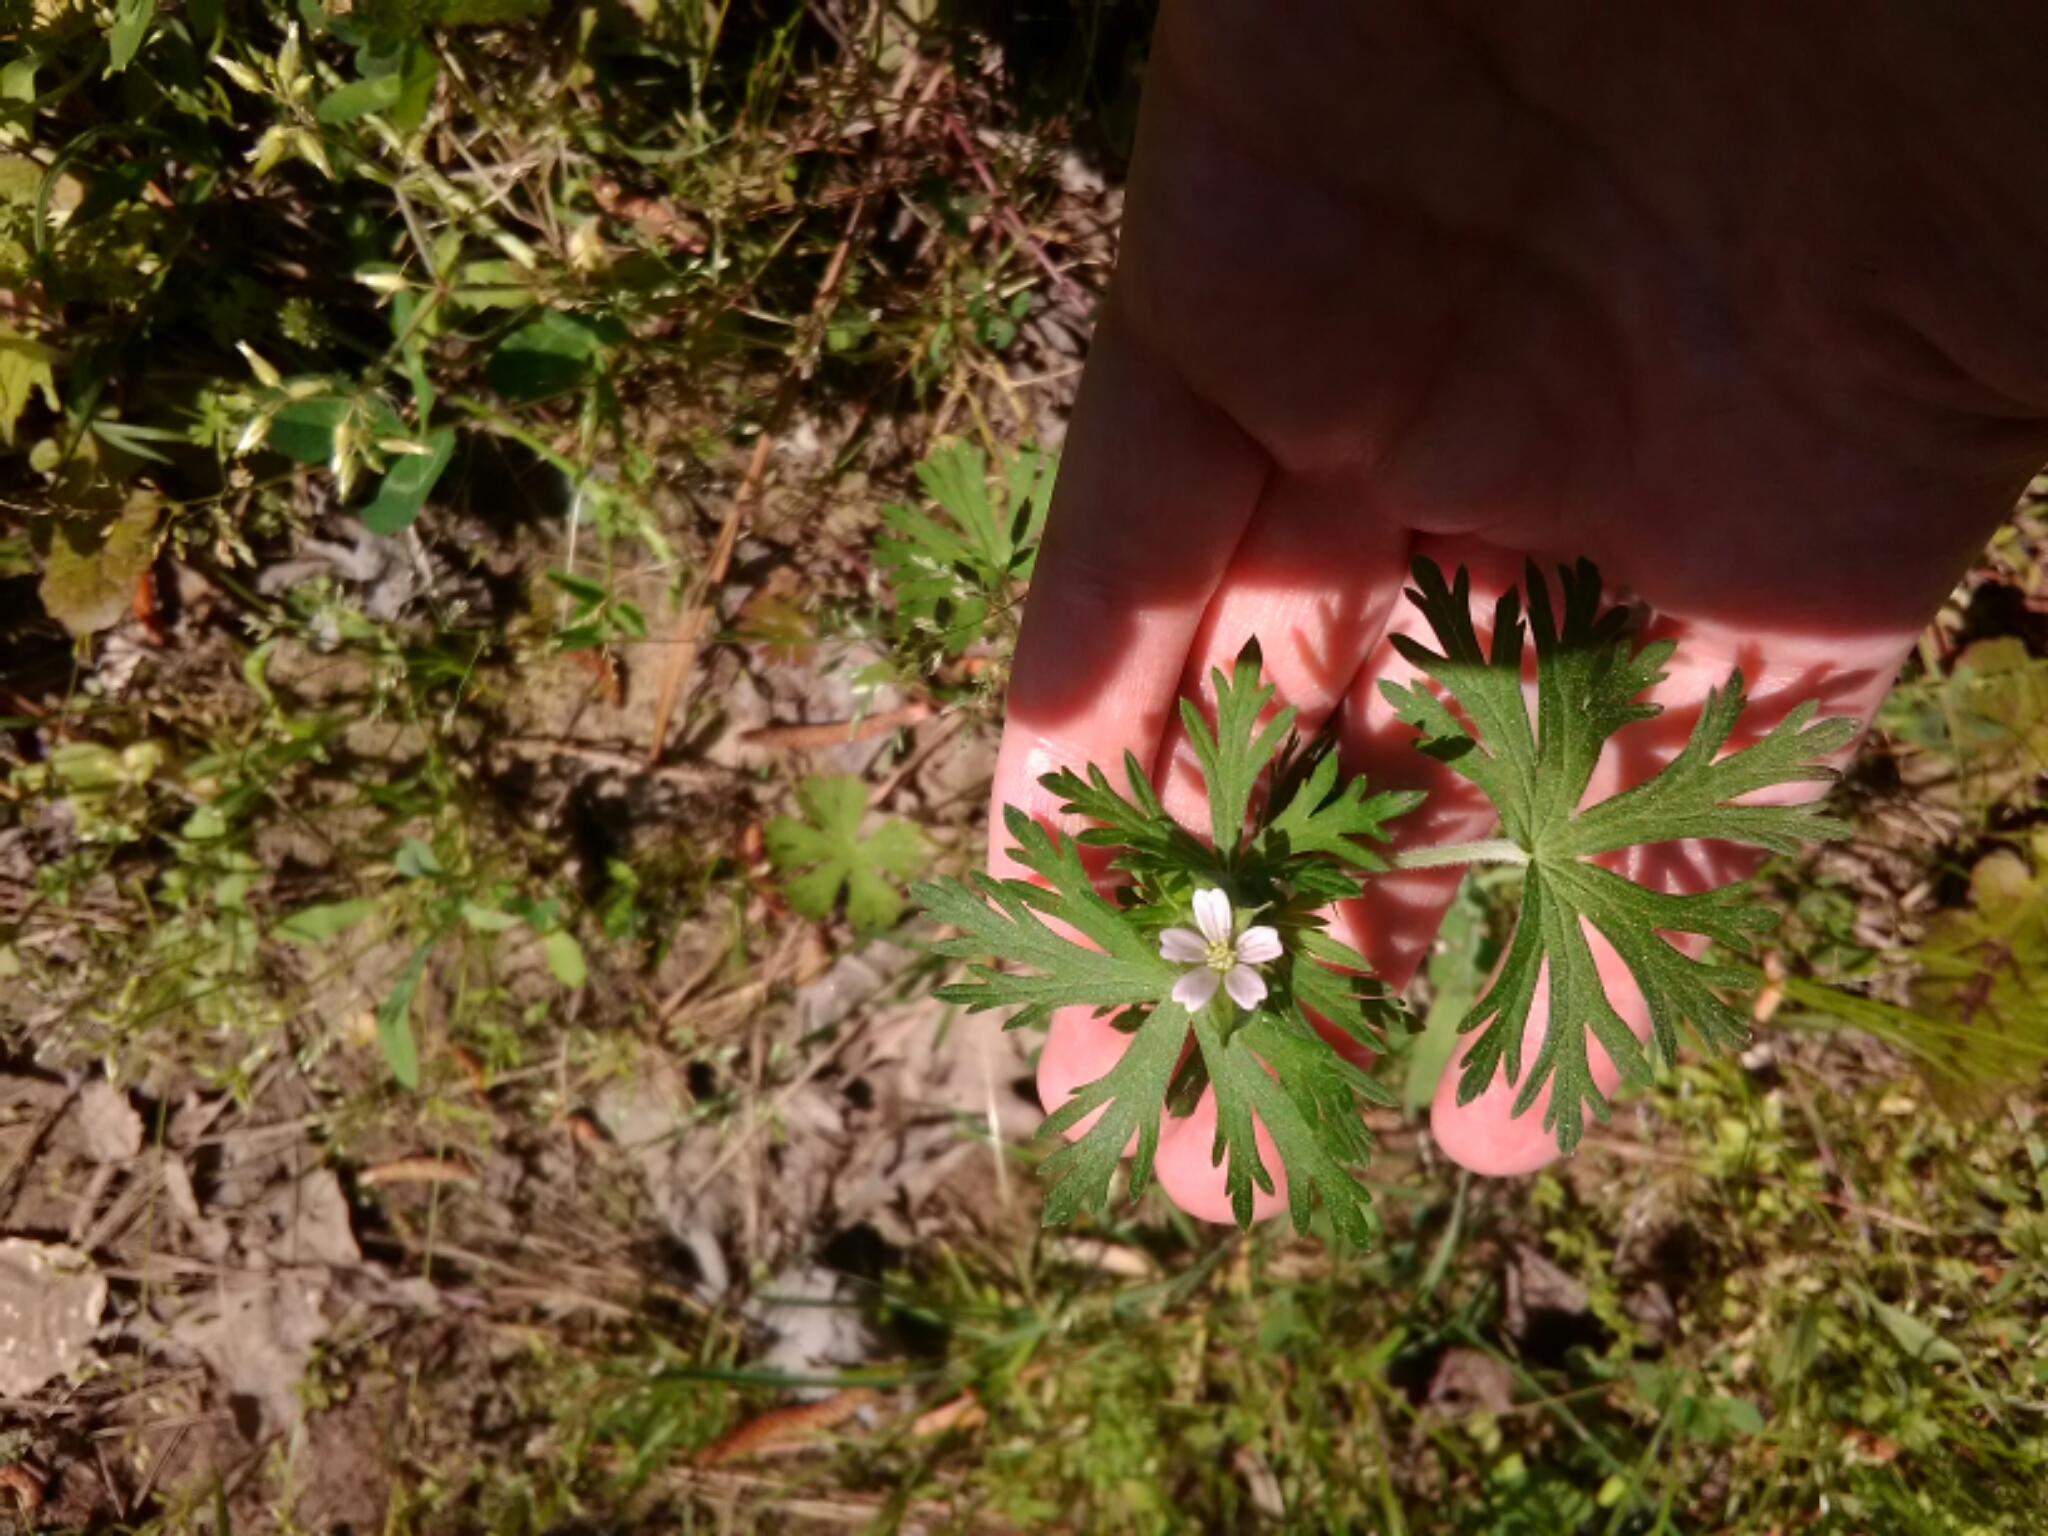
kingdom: Plantae
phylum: Tracheophyta
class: Magnoliopsida
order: Geraniales
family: Geraniaceae
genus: Geranium
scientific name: Geranium carolinianum
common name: Carolina crane's-bill
